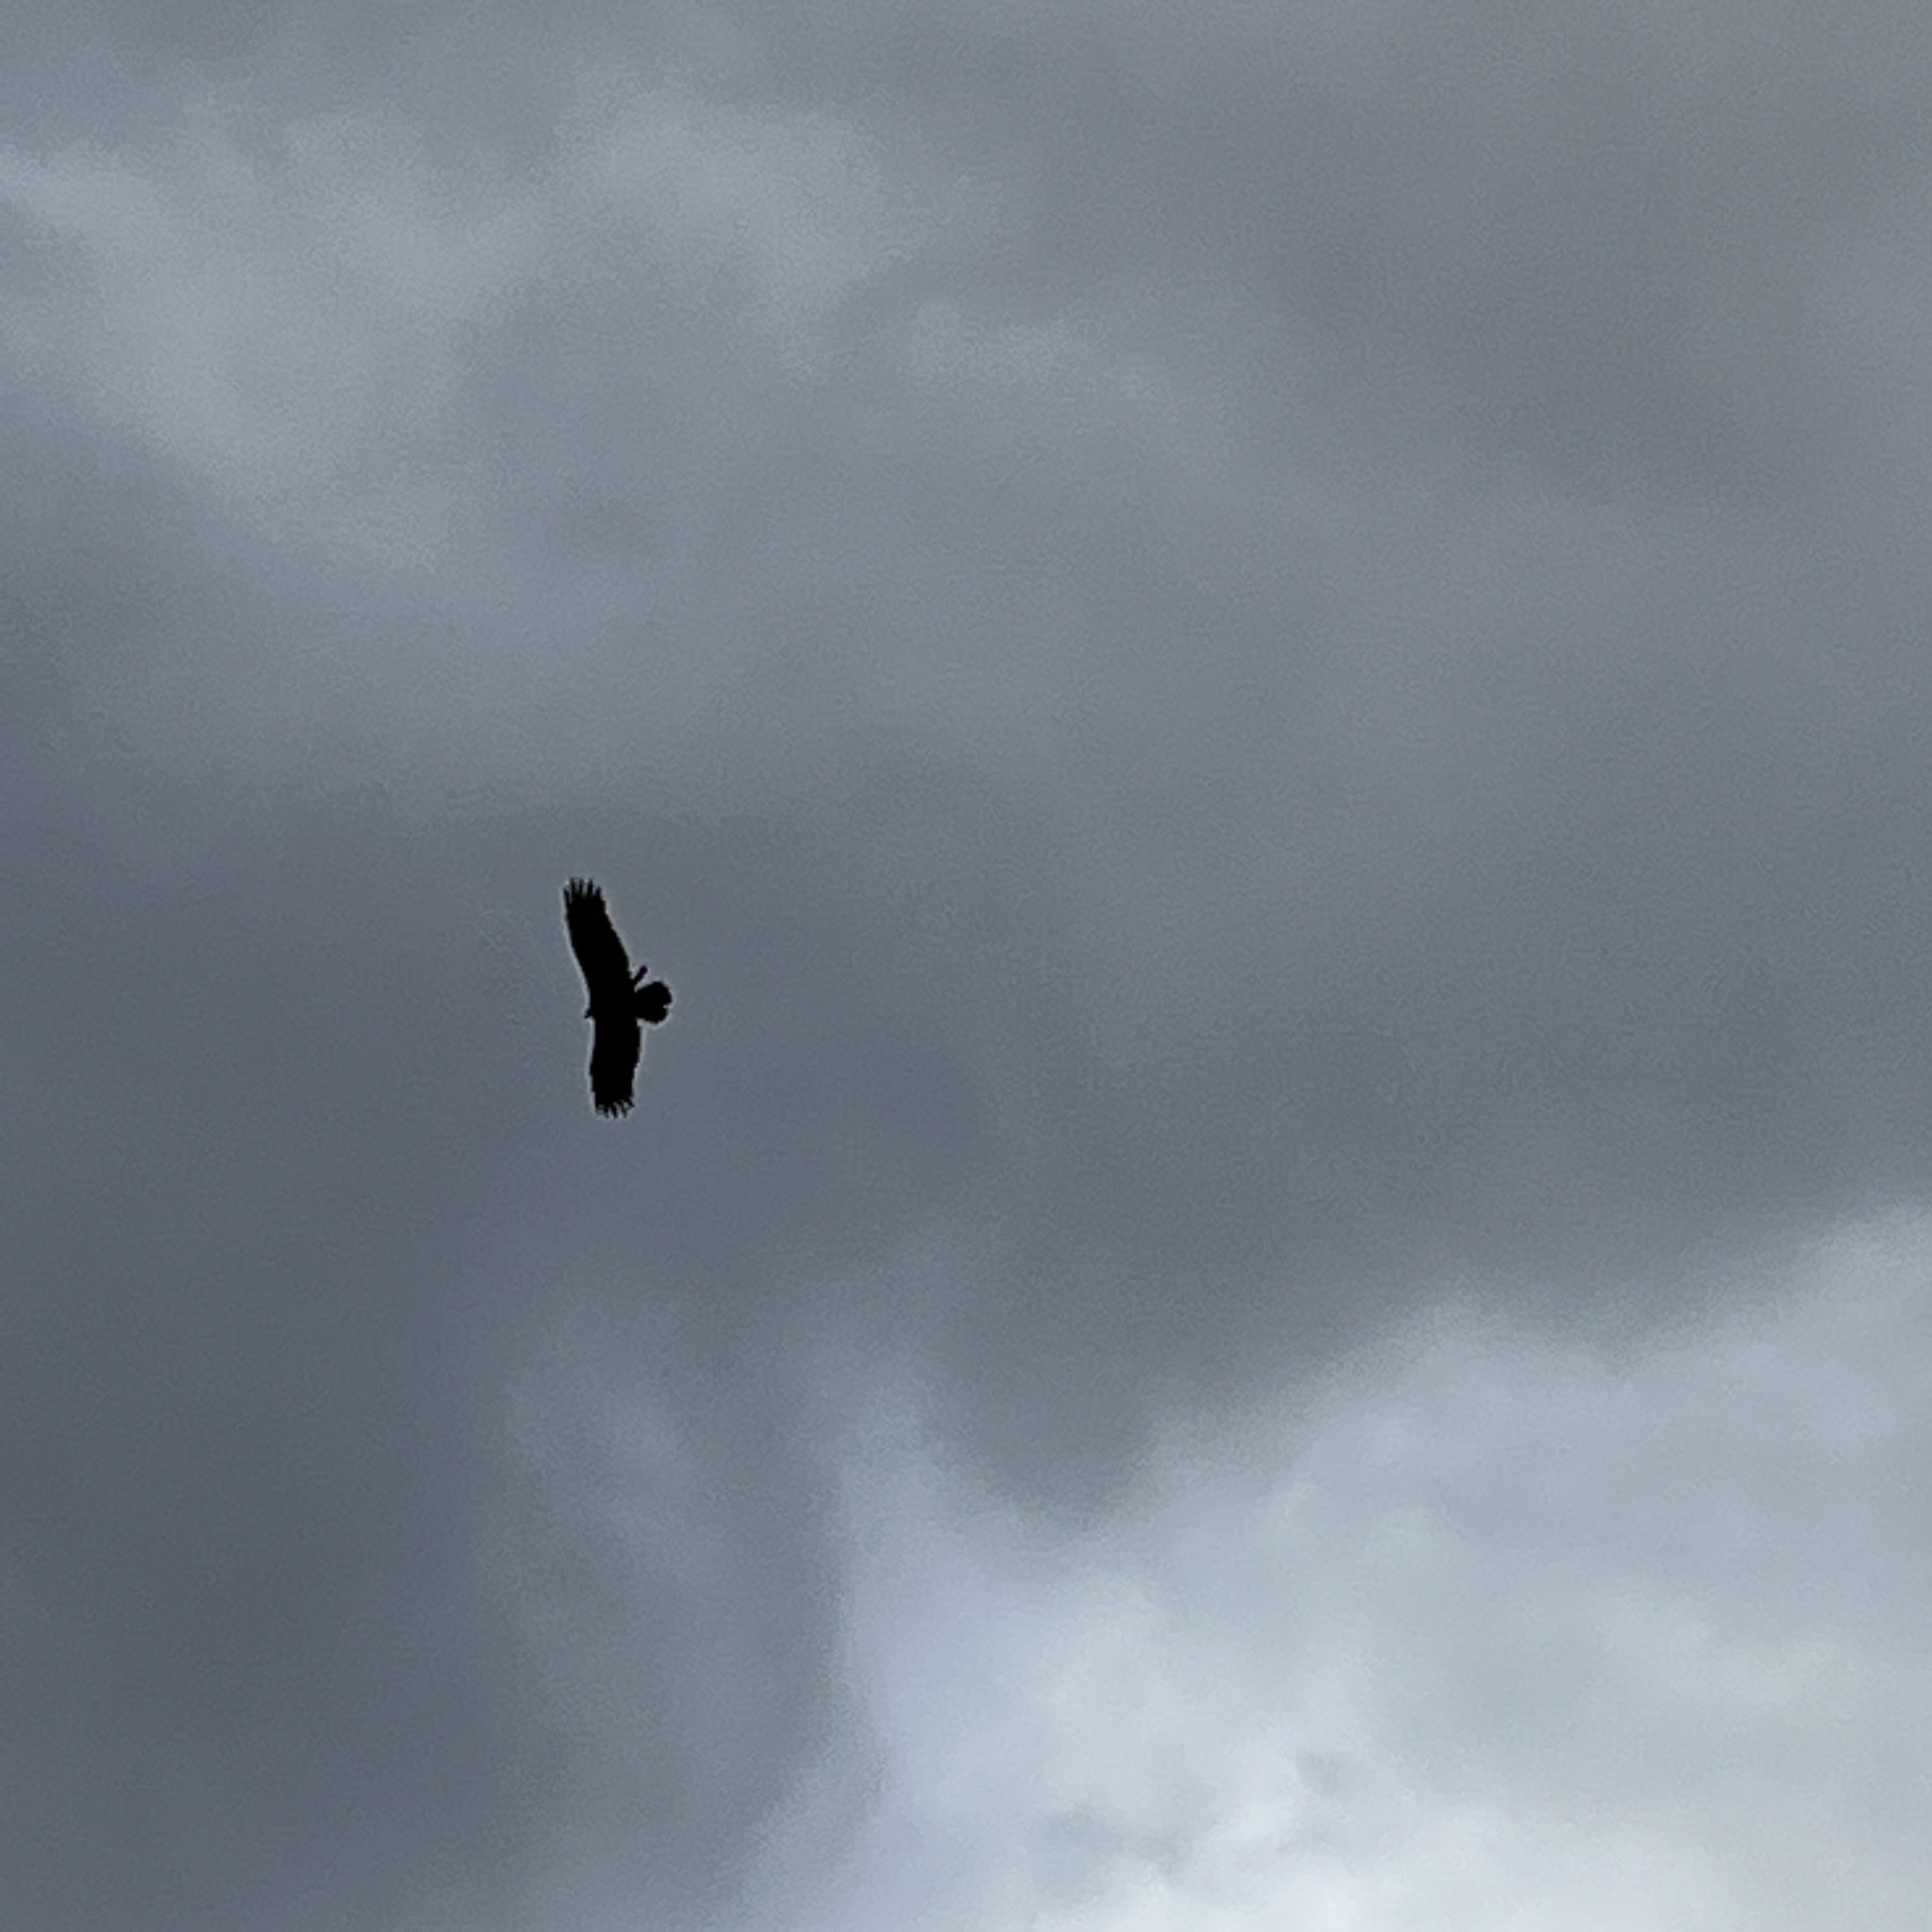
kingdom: Animalia
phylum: Chordata
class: Aves
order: Accipitriformes
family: Cathartidae
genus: Cathartes
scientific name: Cathartes aura
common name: Turkey vulture
